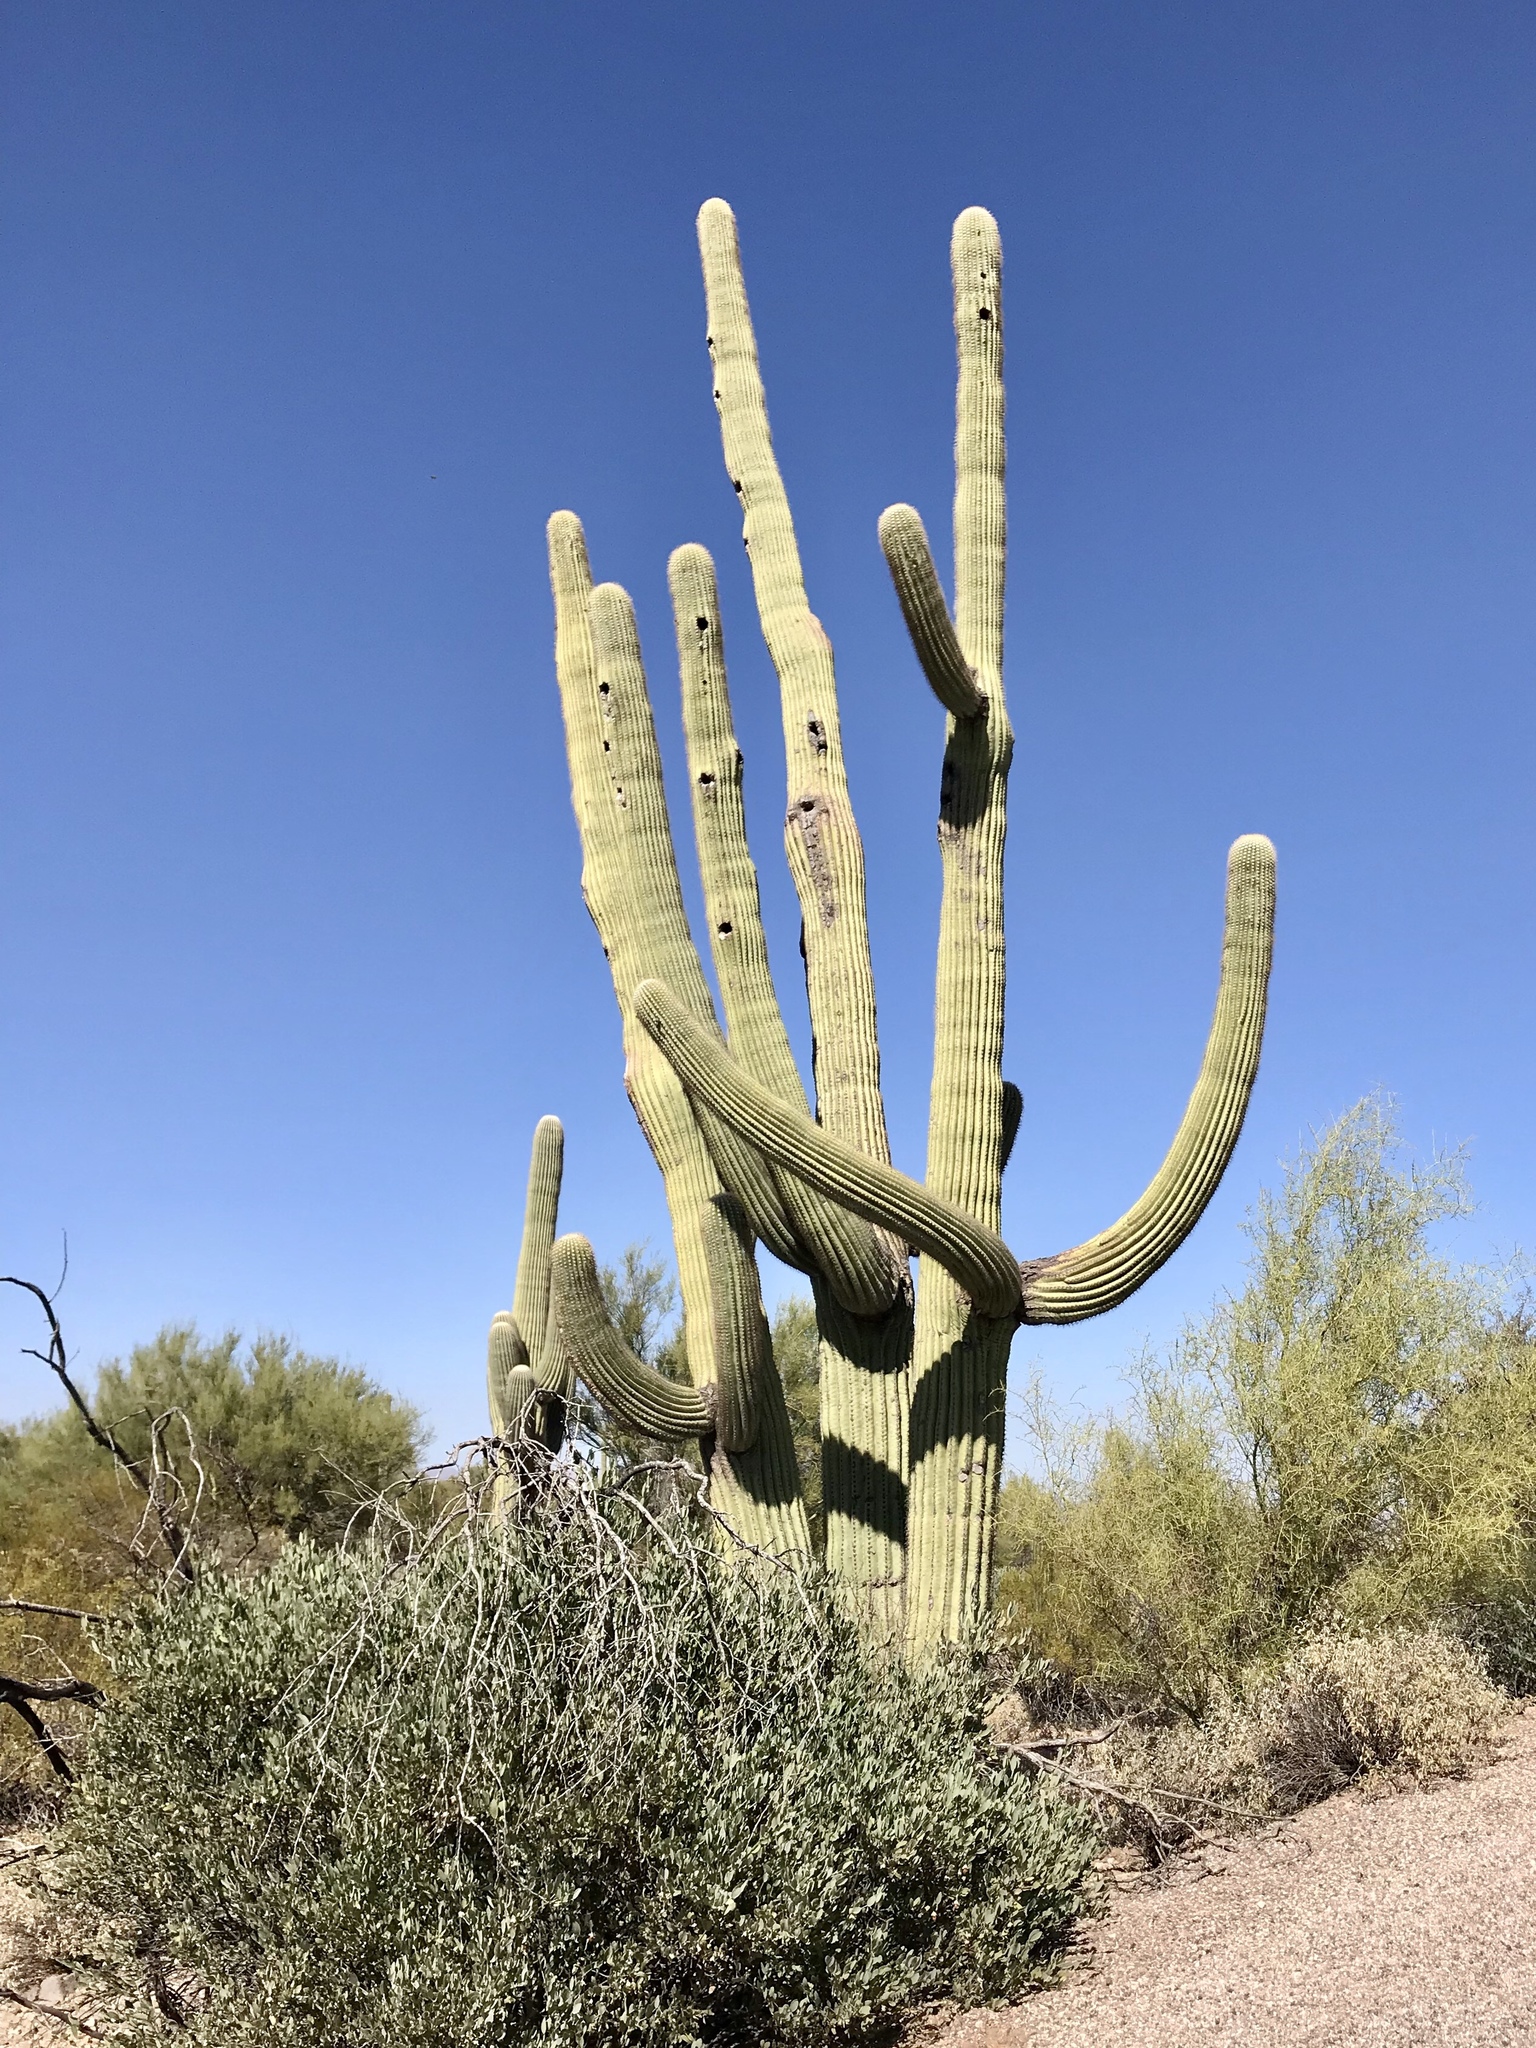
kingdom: Plantae
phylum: Tracheophyta
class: Magnoliopsida
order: Caryophyllales
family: Cactaceae
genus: Carnegiea
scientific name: Carnegiea gigantea
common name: Saguaro
